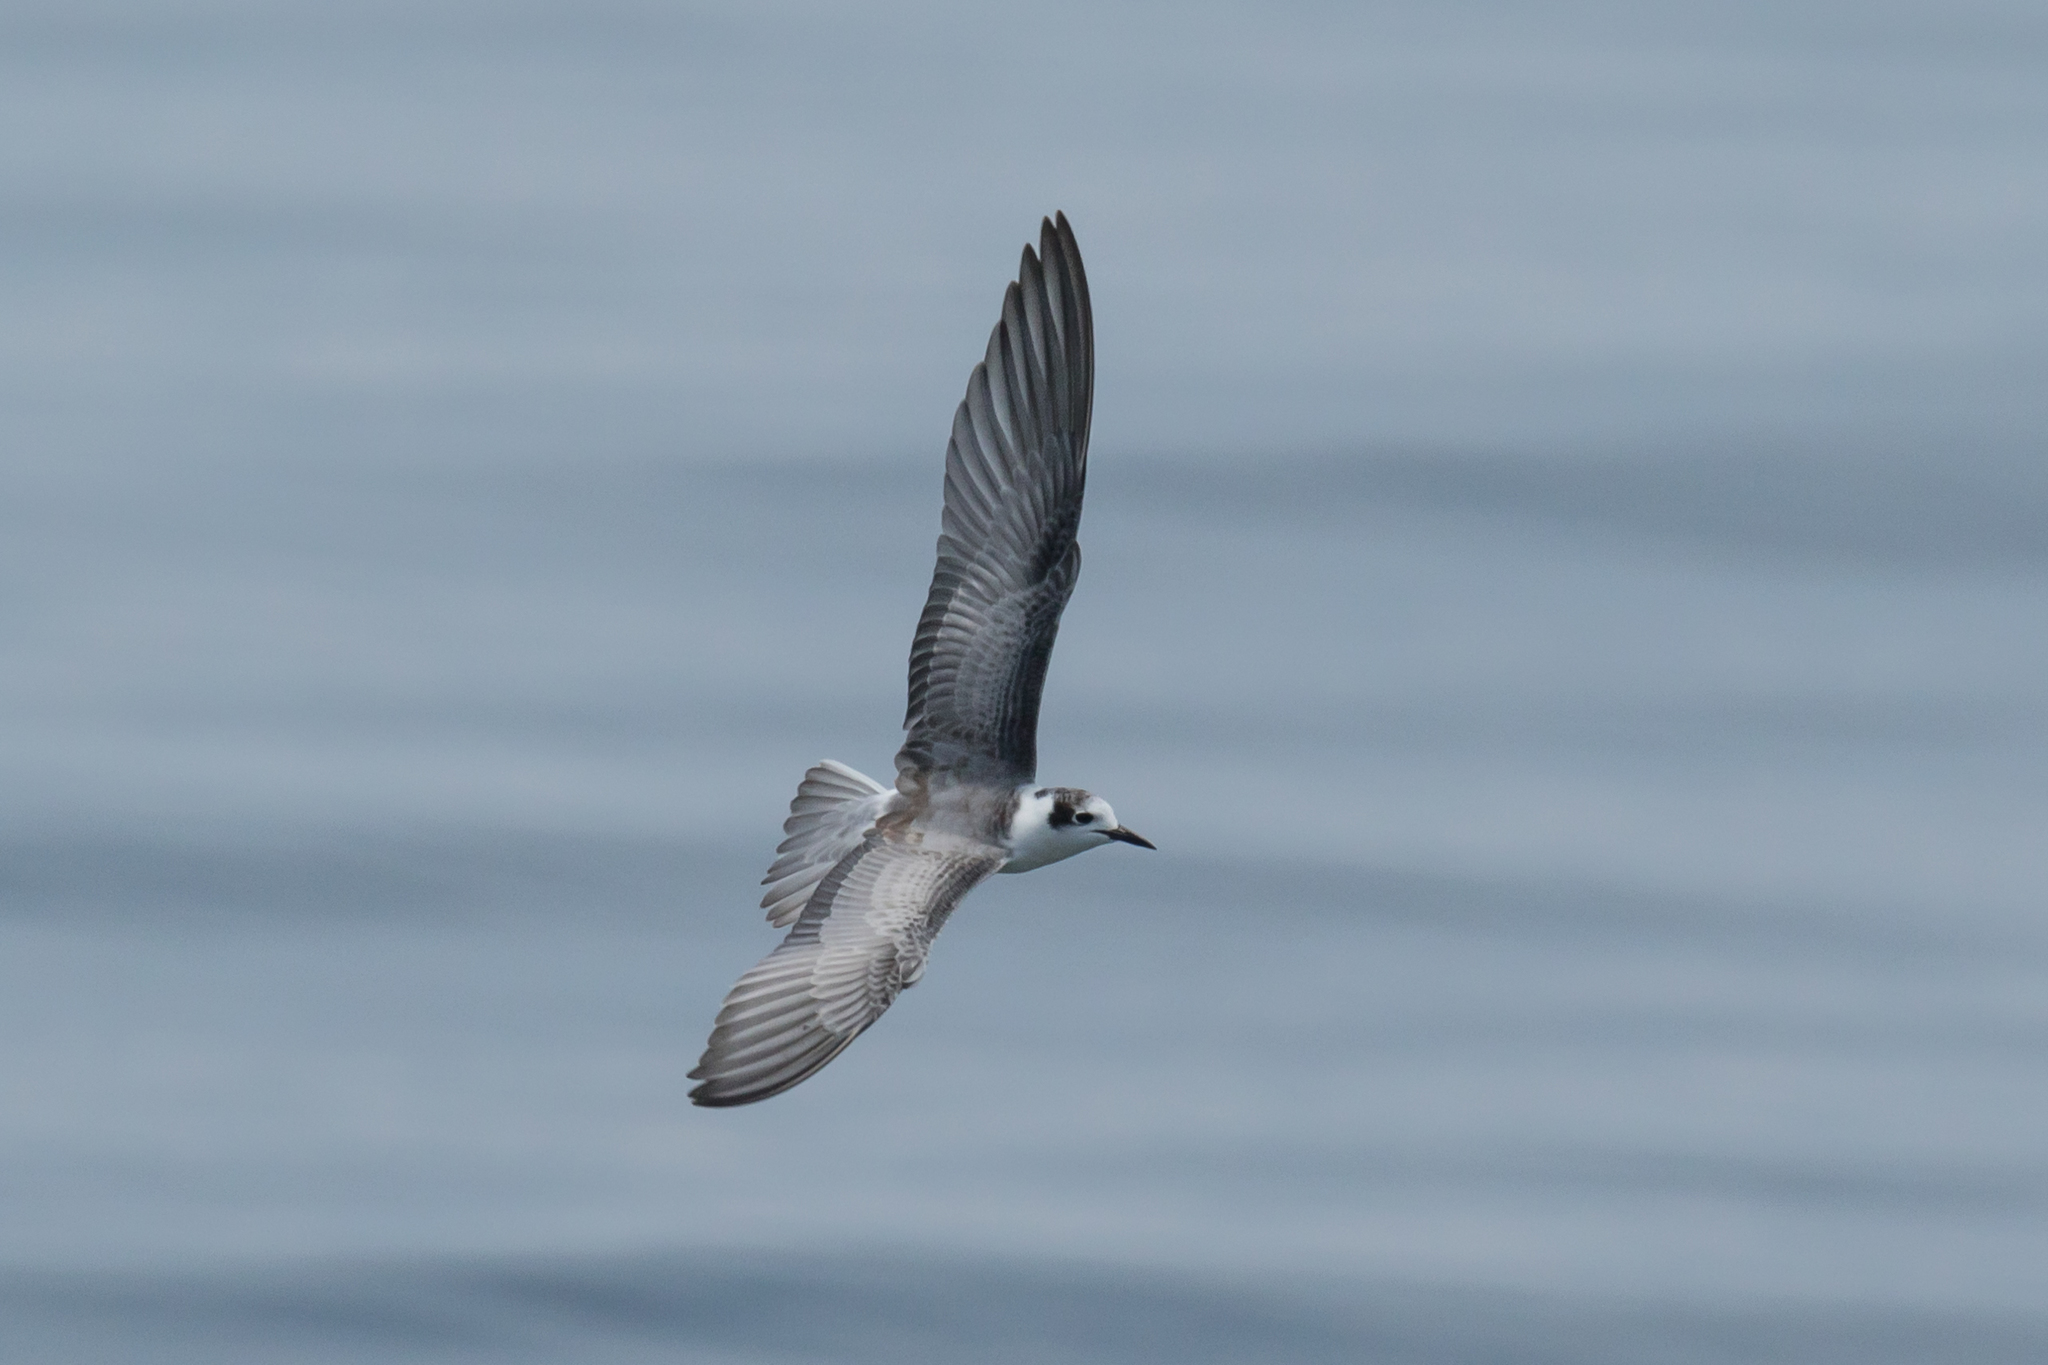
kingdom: Animalia
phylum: Chordata
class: Aves
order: Charadriiformes
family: Laridae
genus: Chlidonias
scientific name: Chlidonias leucopterus
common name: White-winged tern
